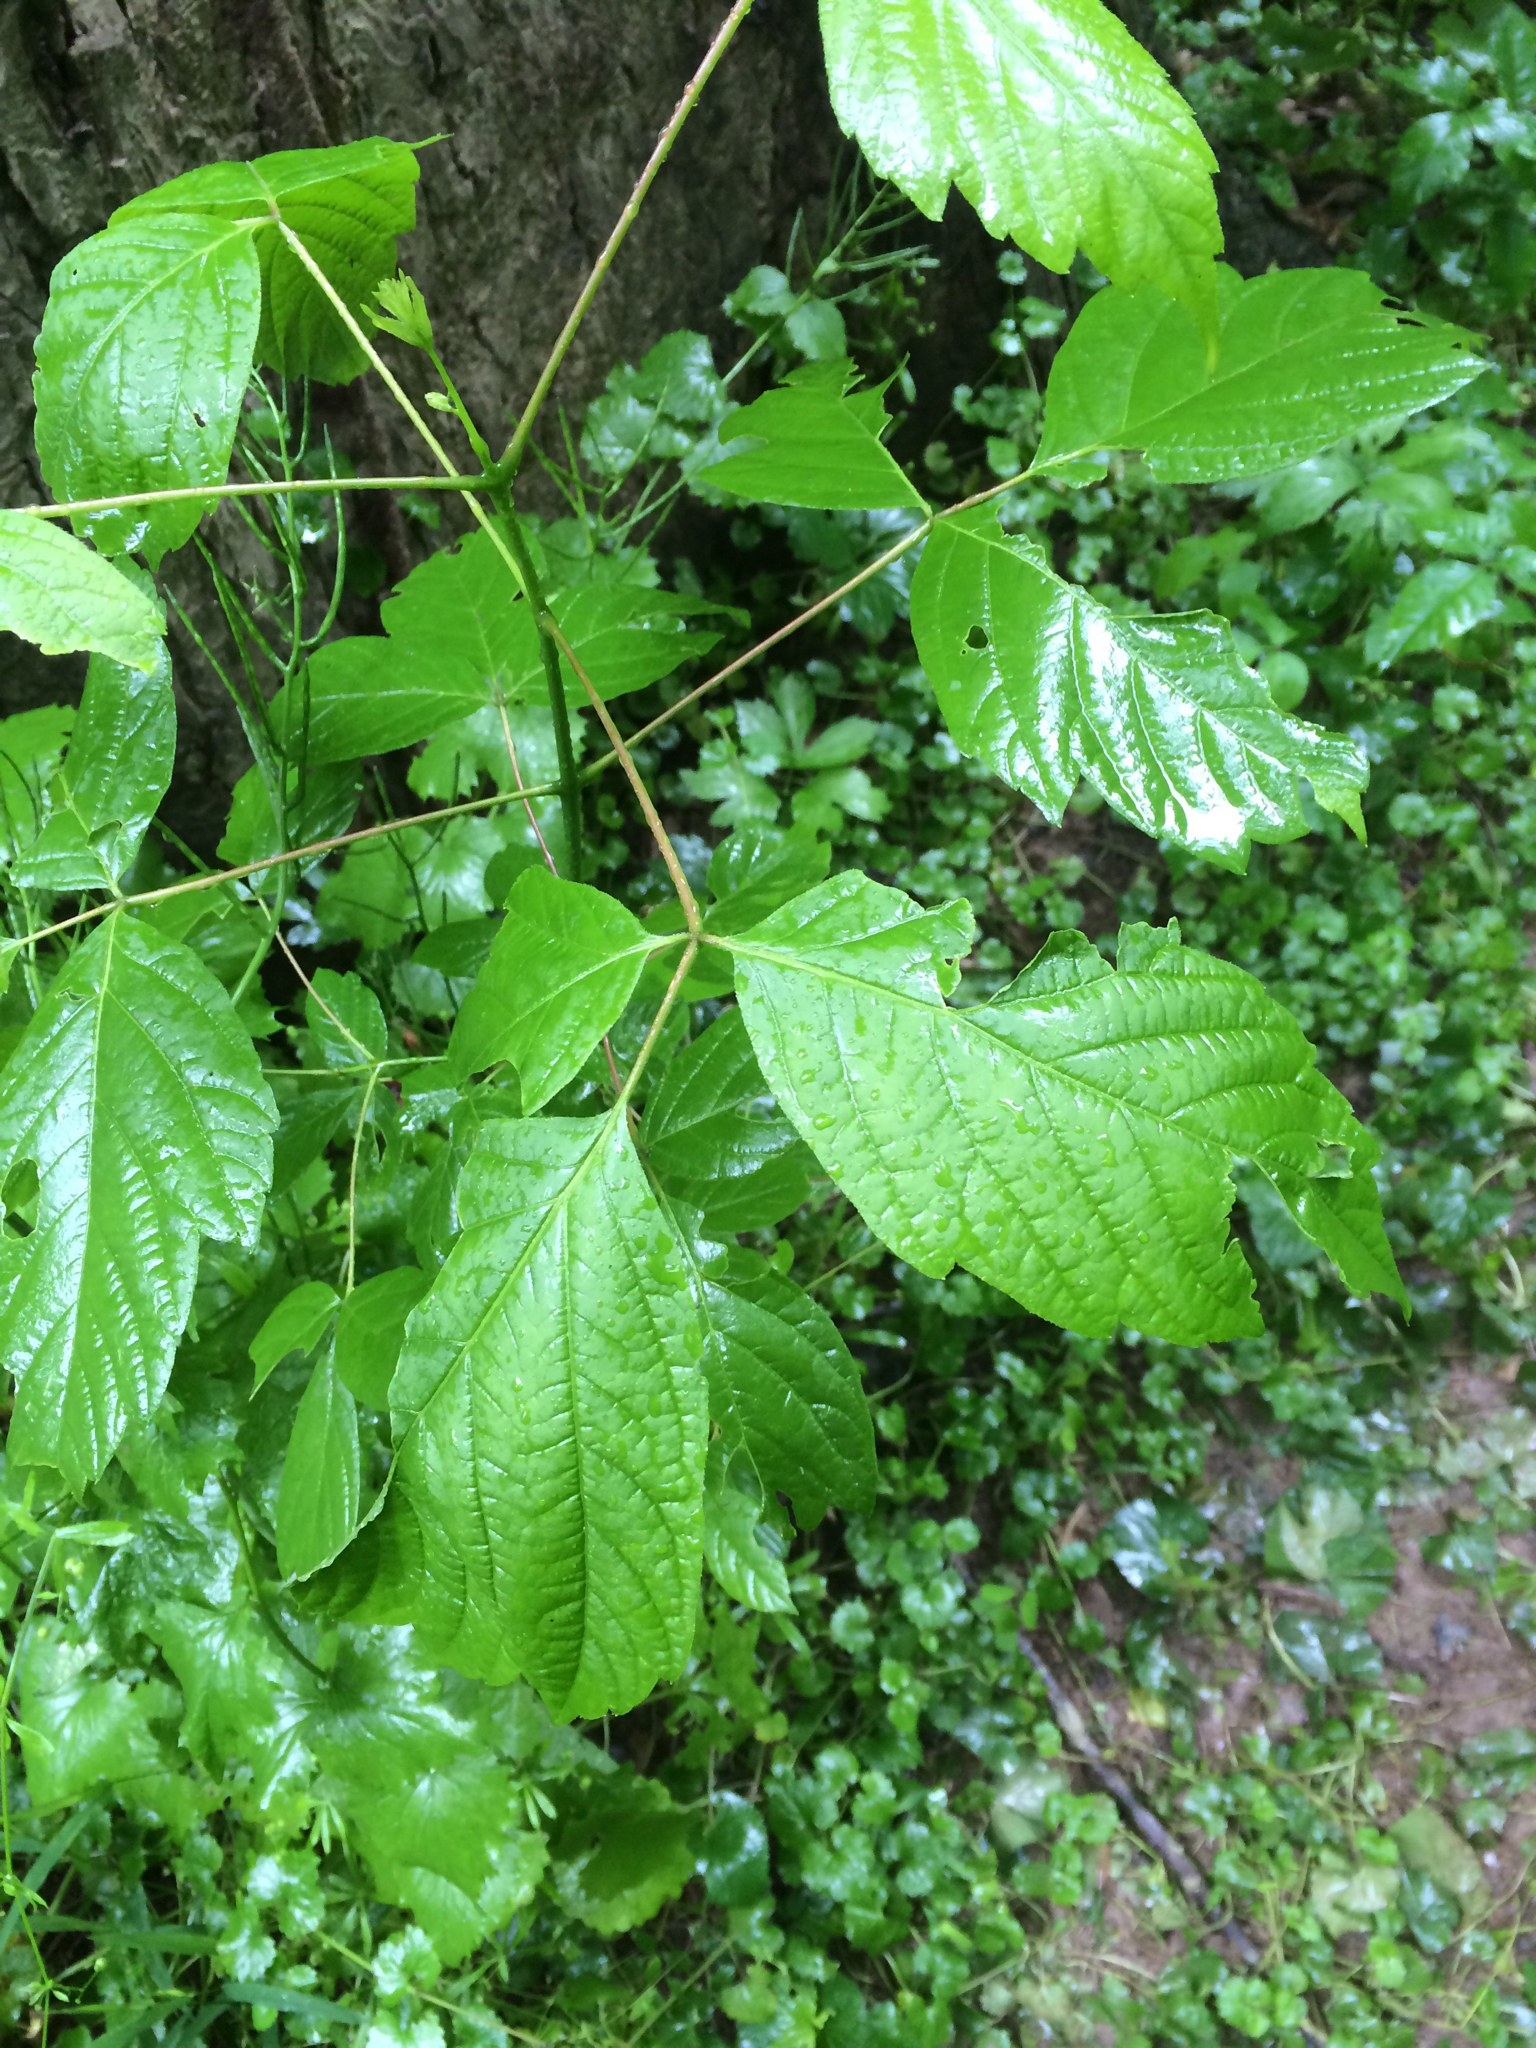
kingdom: Plantae
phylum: Tracheophyta
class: Magnoliopsida
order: Sapindales
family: Sapindaceae
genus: Acer
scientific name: Acer negundo
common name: Ashleaf maple
